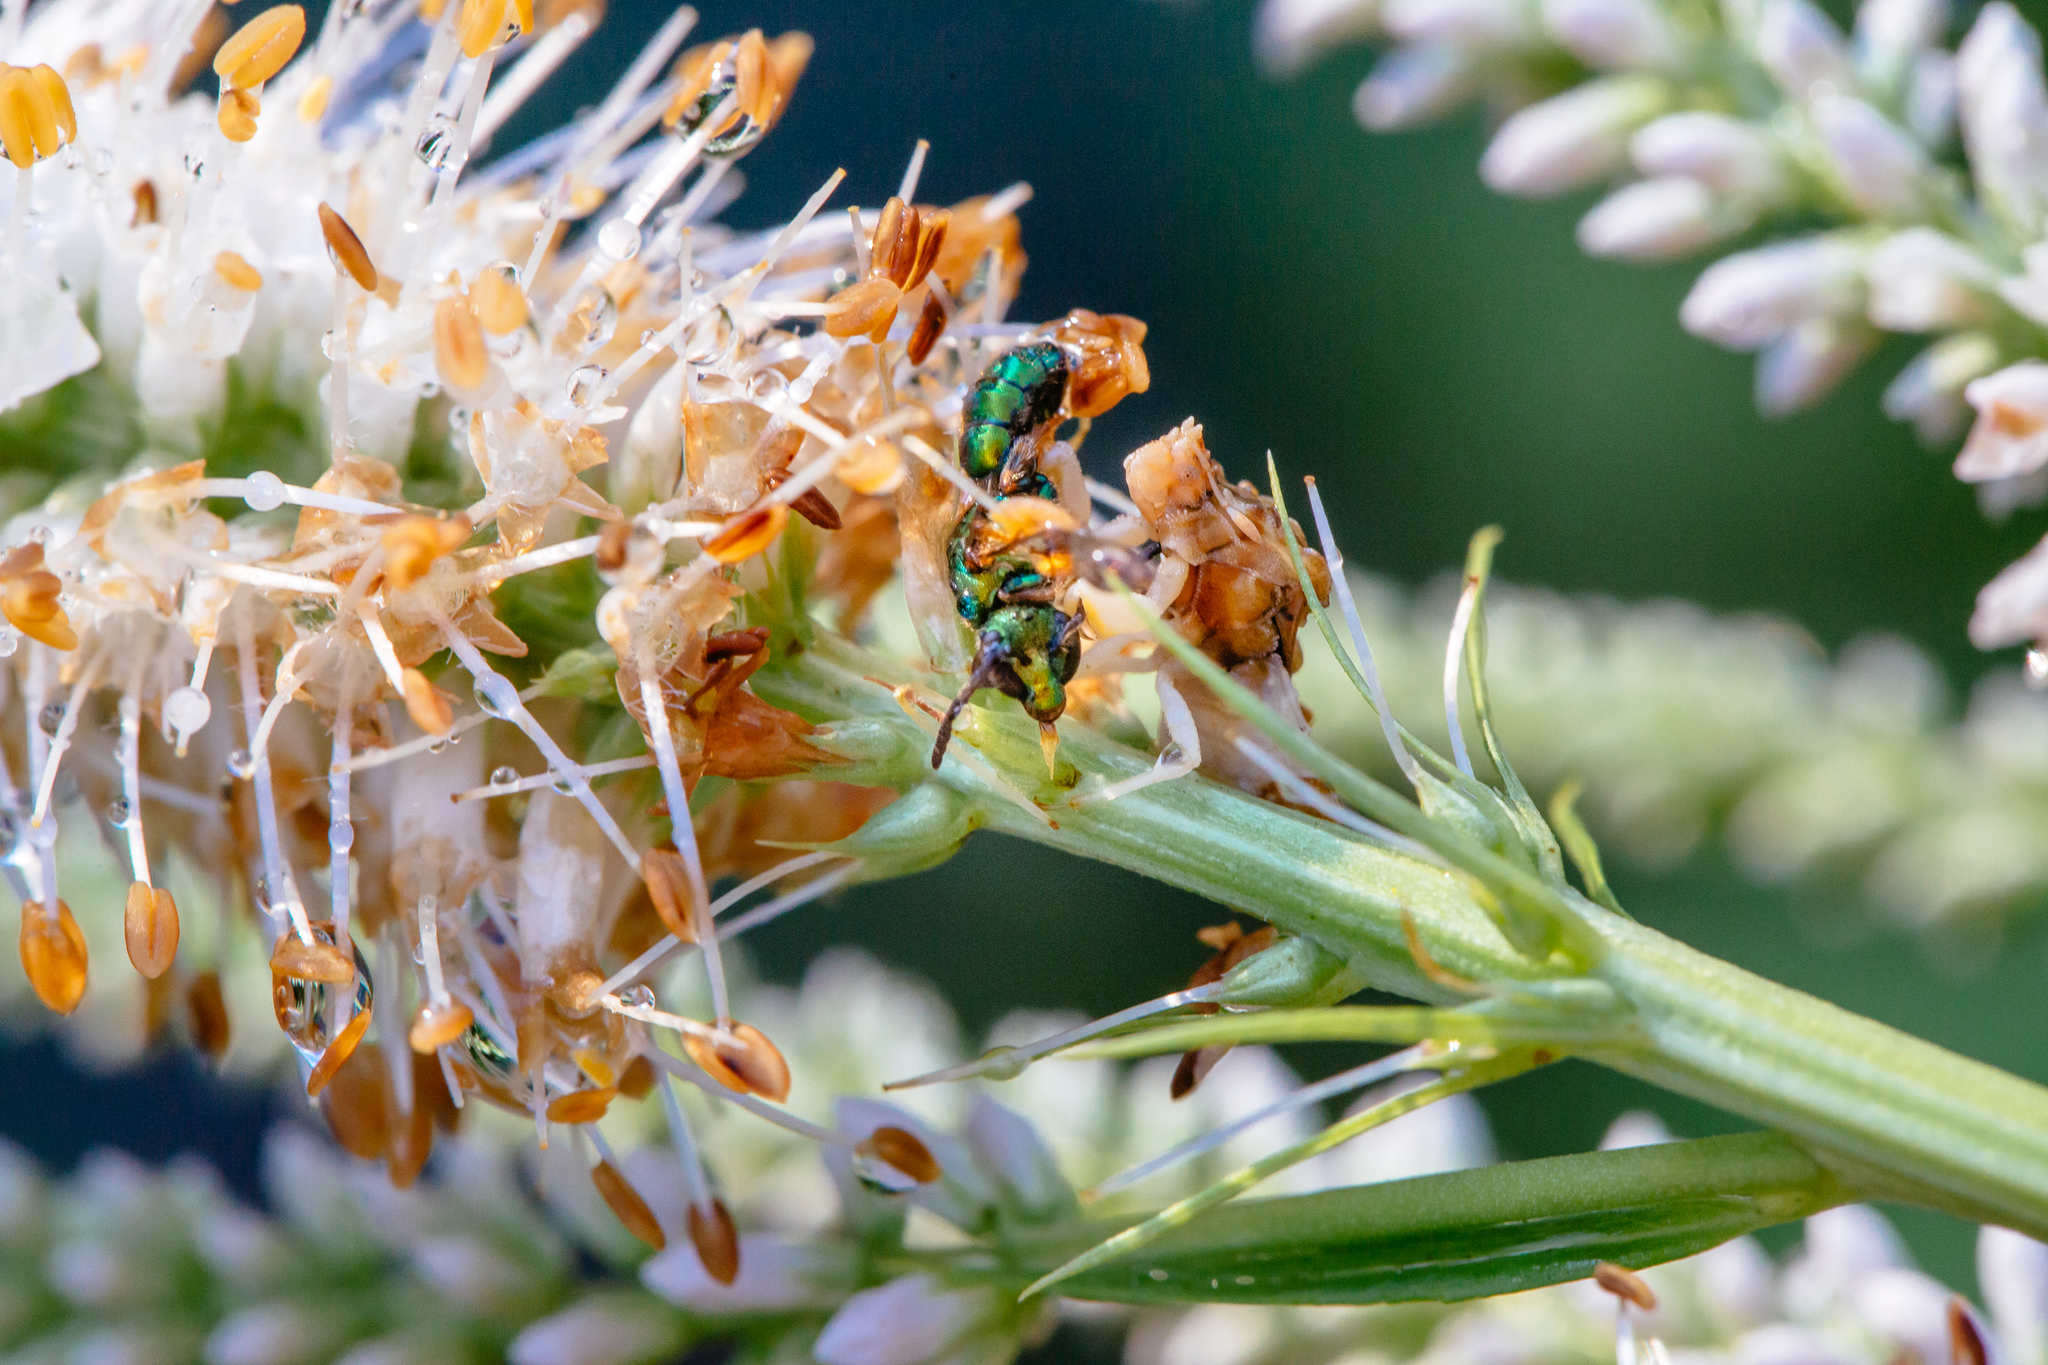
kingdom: Animalia
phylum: Arthropoda
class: Insecta
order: Hymenoptera
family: Halictidae
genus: Augochlorella
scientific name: Augochlorella aurata
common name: Golden sweat bee
